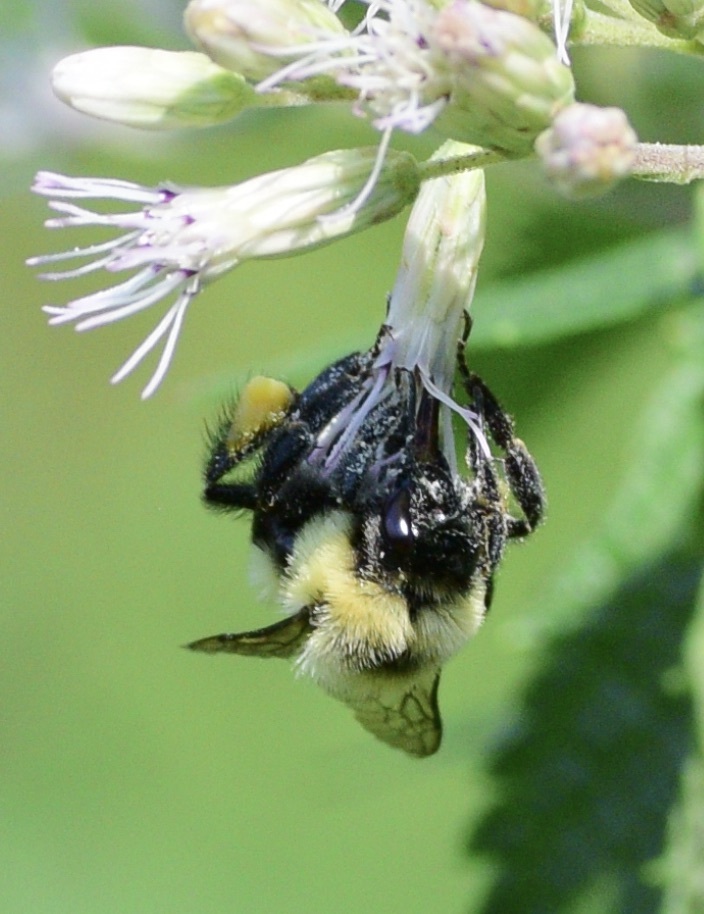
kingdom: Animalia
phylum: Arthropoda
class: Insecta
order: Hymenoptera
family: Apidae
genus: Bombus
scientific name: Bombus impatiens
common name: Common eastern bumble bee
